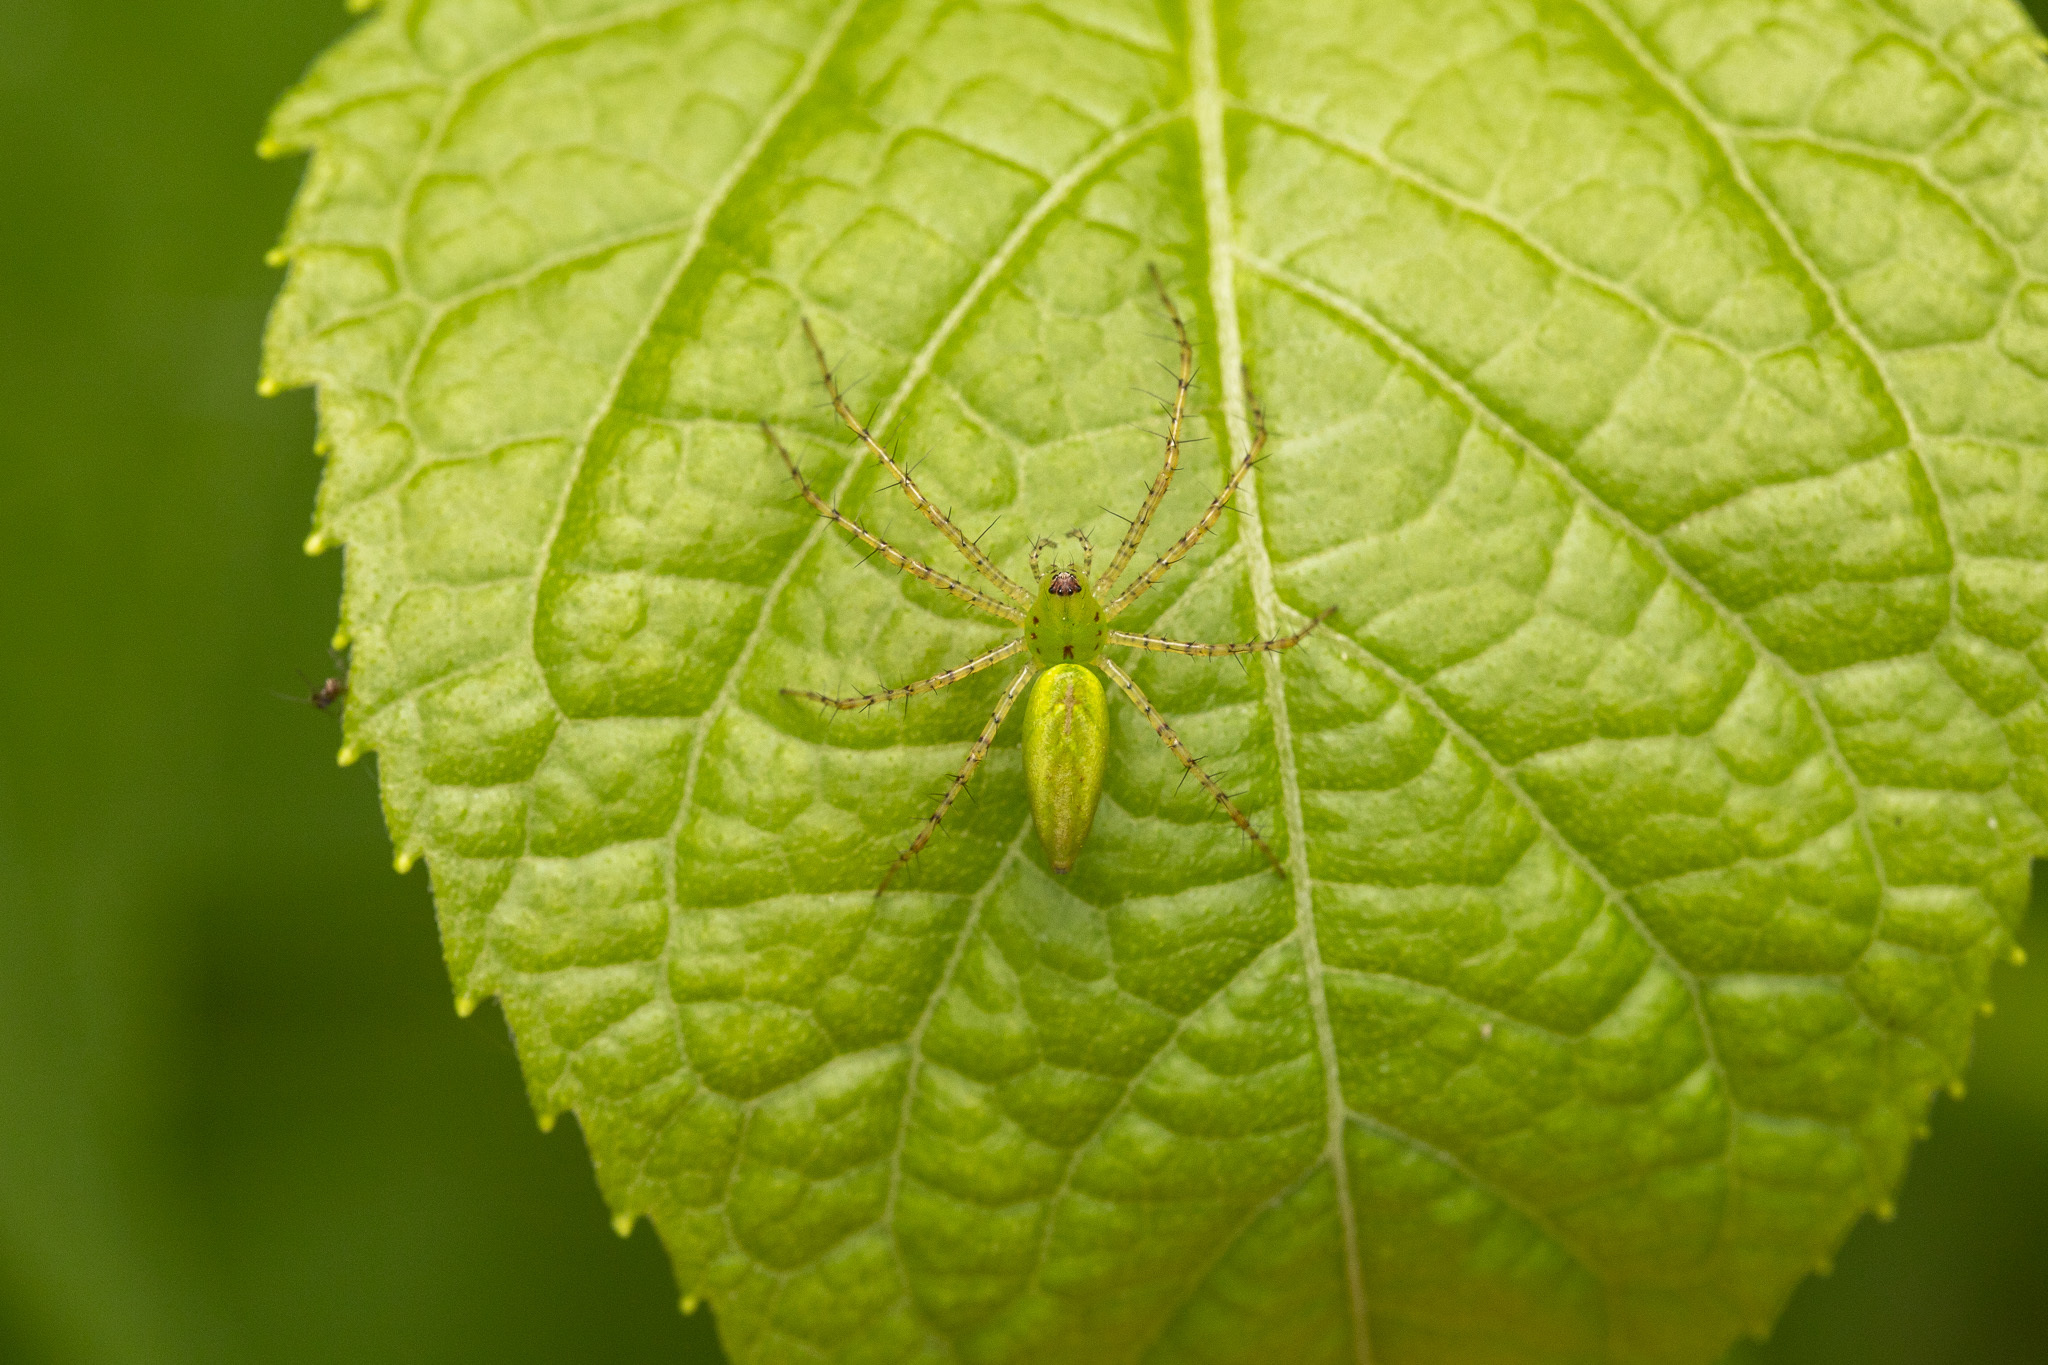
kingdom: Animalia
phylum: Arthropoda
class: Arachnida
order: Araneae
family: Oxyopidae
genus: Peucetia
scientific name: Peucetia viridans
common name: Lynx spiders
